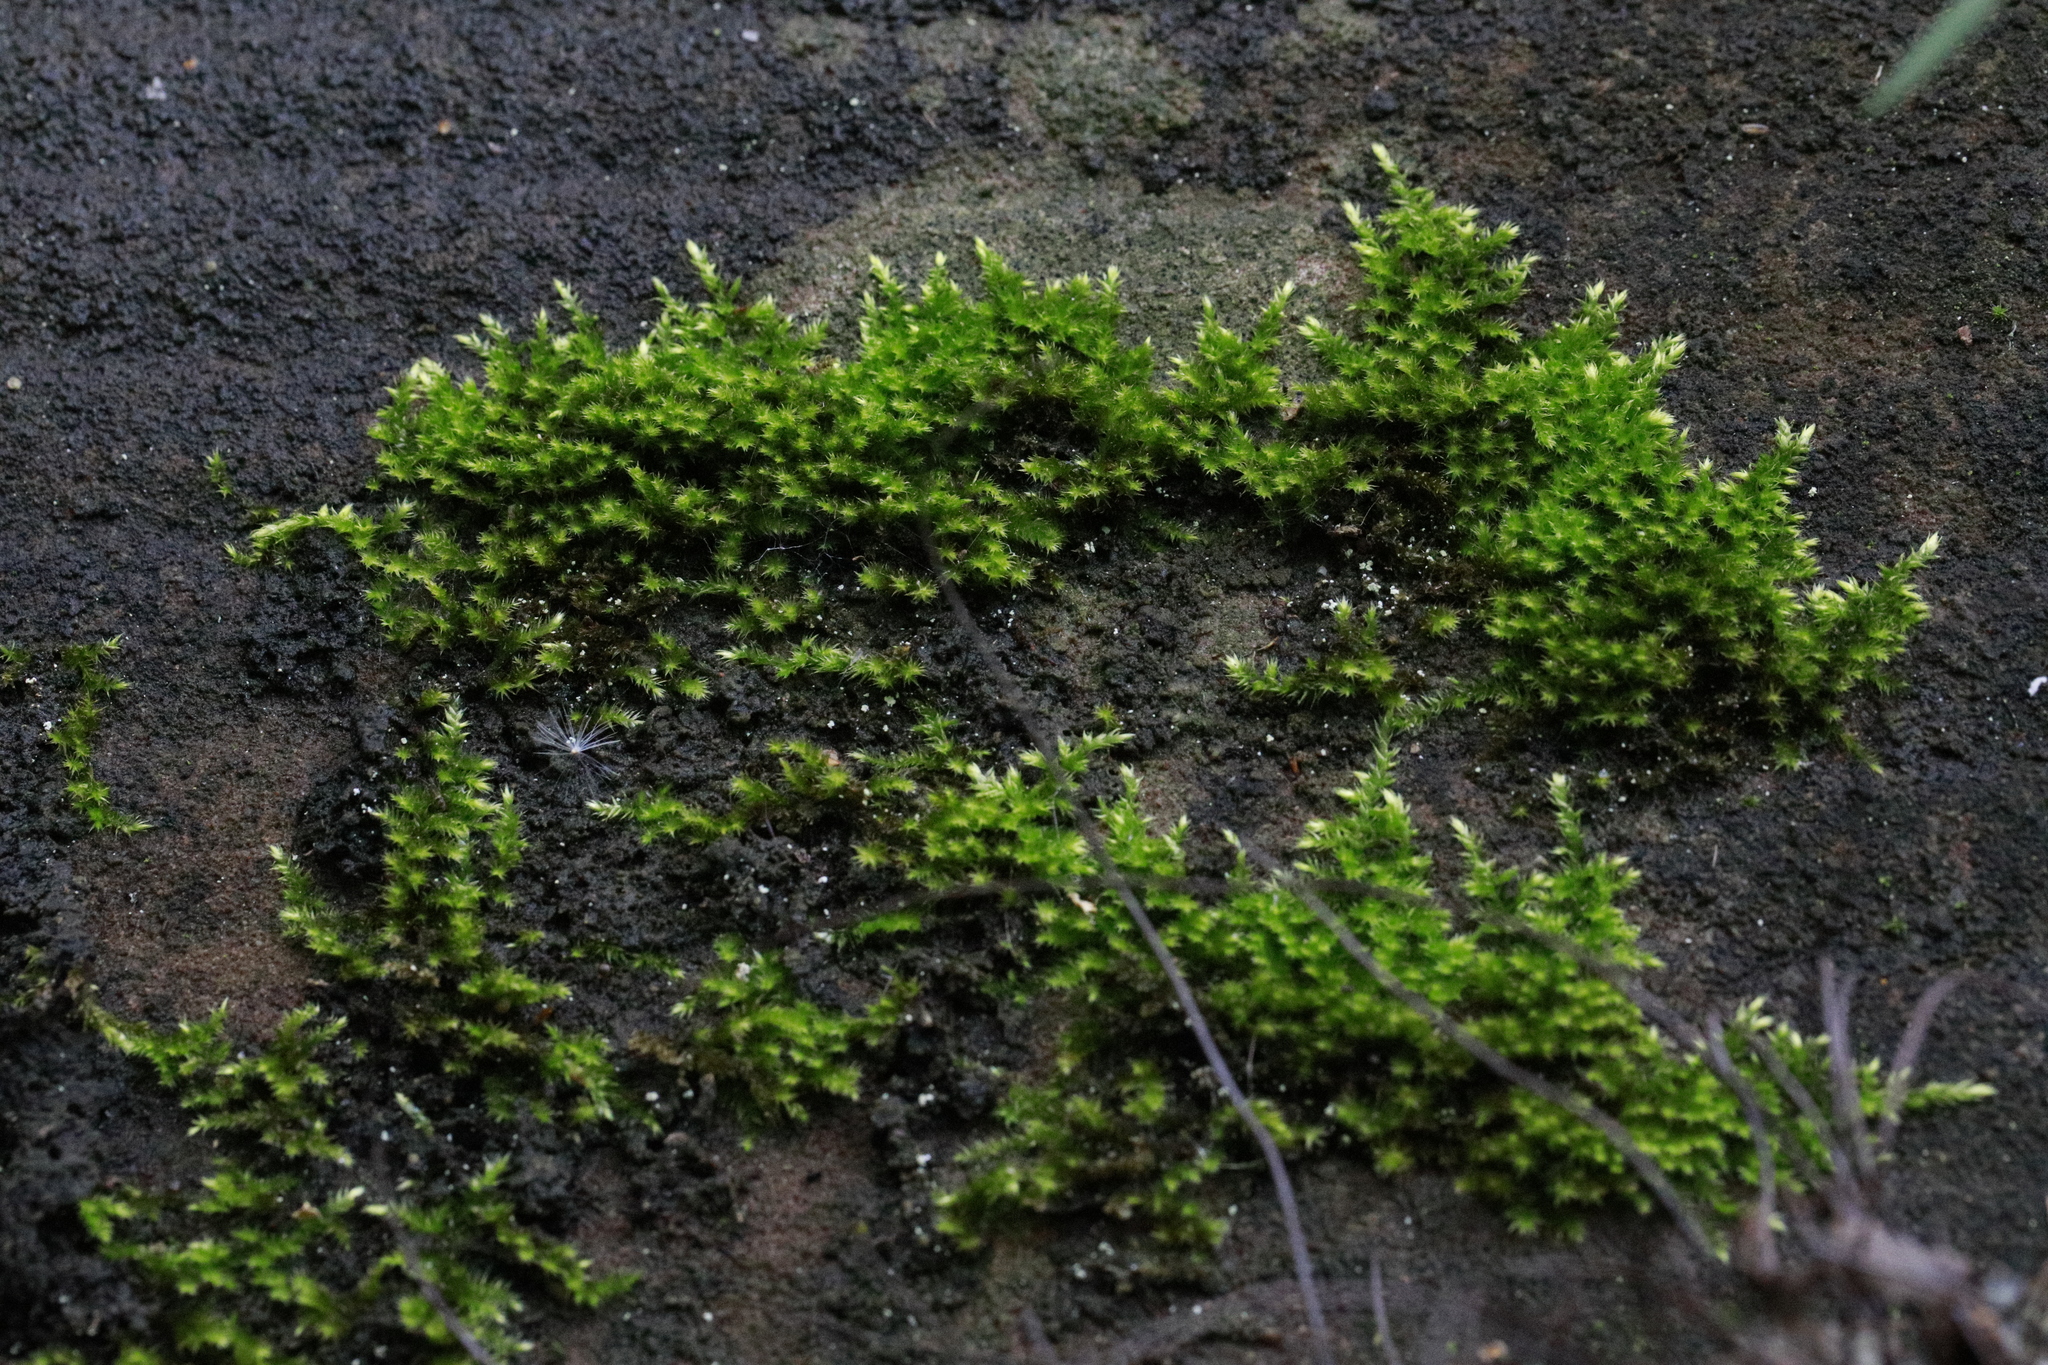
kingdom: Plantae
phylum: Bryophyta
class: Bryopsida
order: Hypnales
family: Brachytheciaceae
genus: Homalothecium
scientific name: Homalothecium sericeum
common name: Silky wall feather-moss
